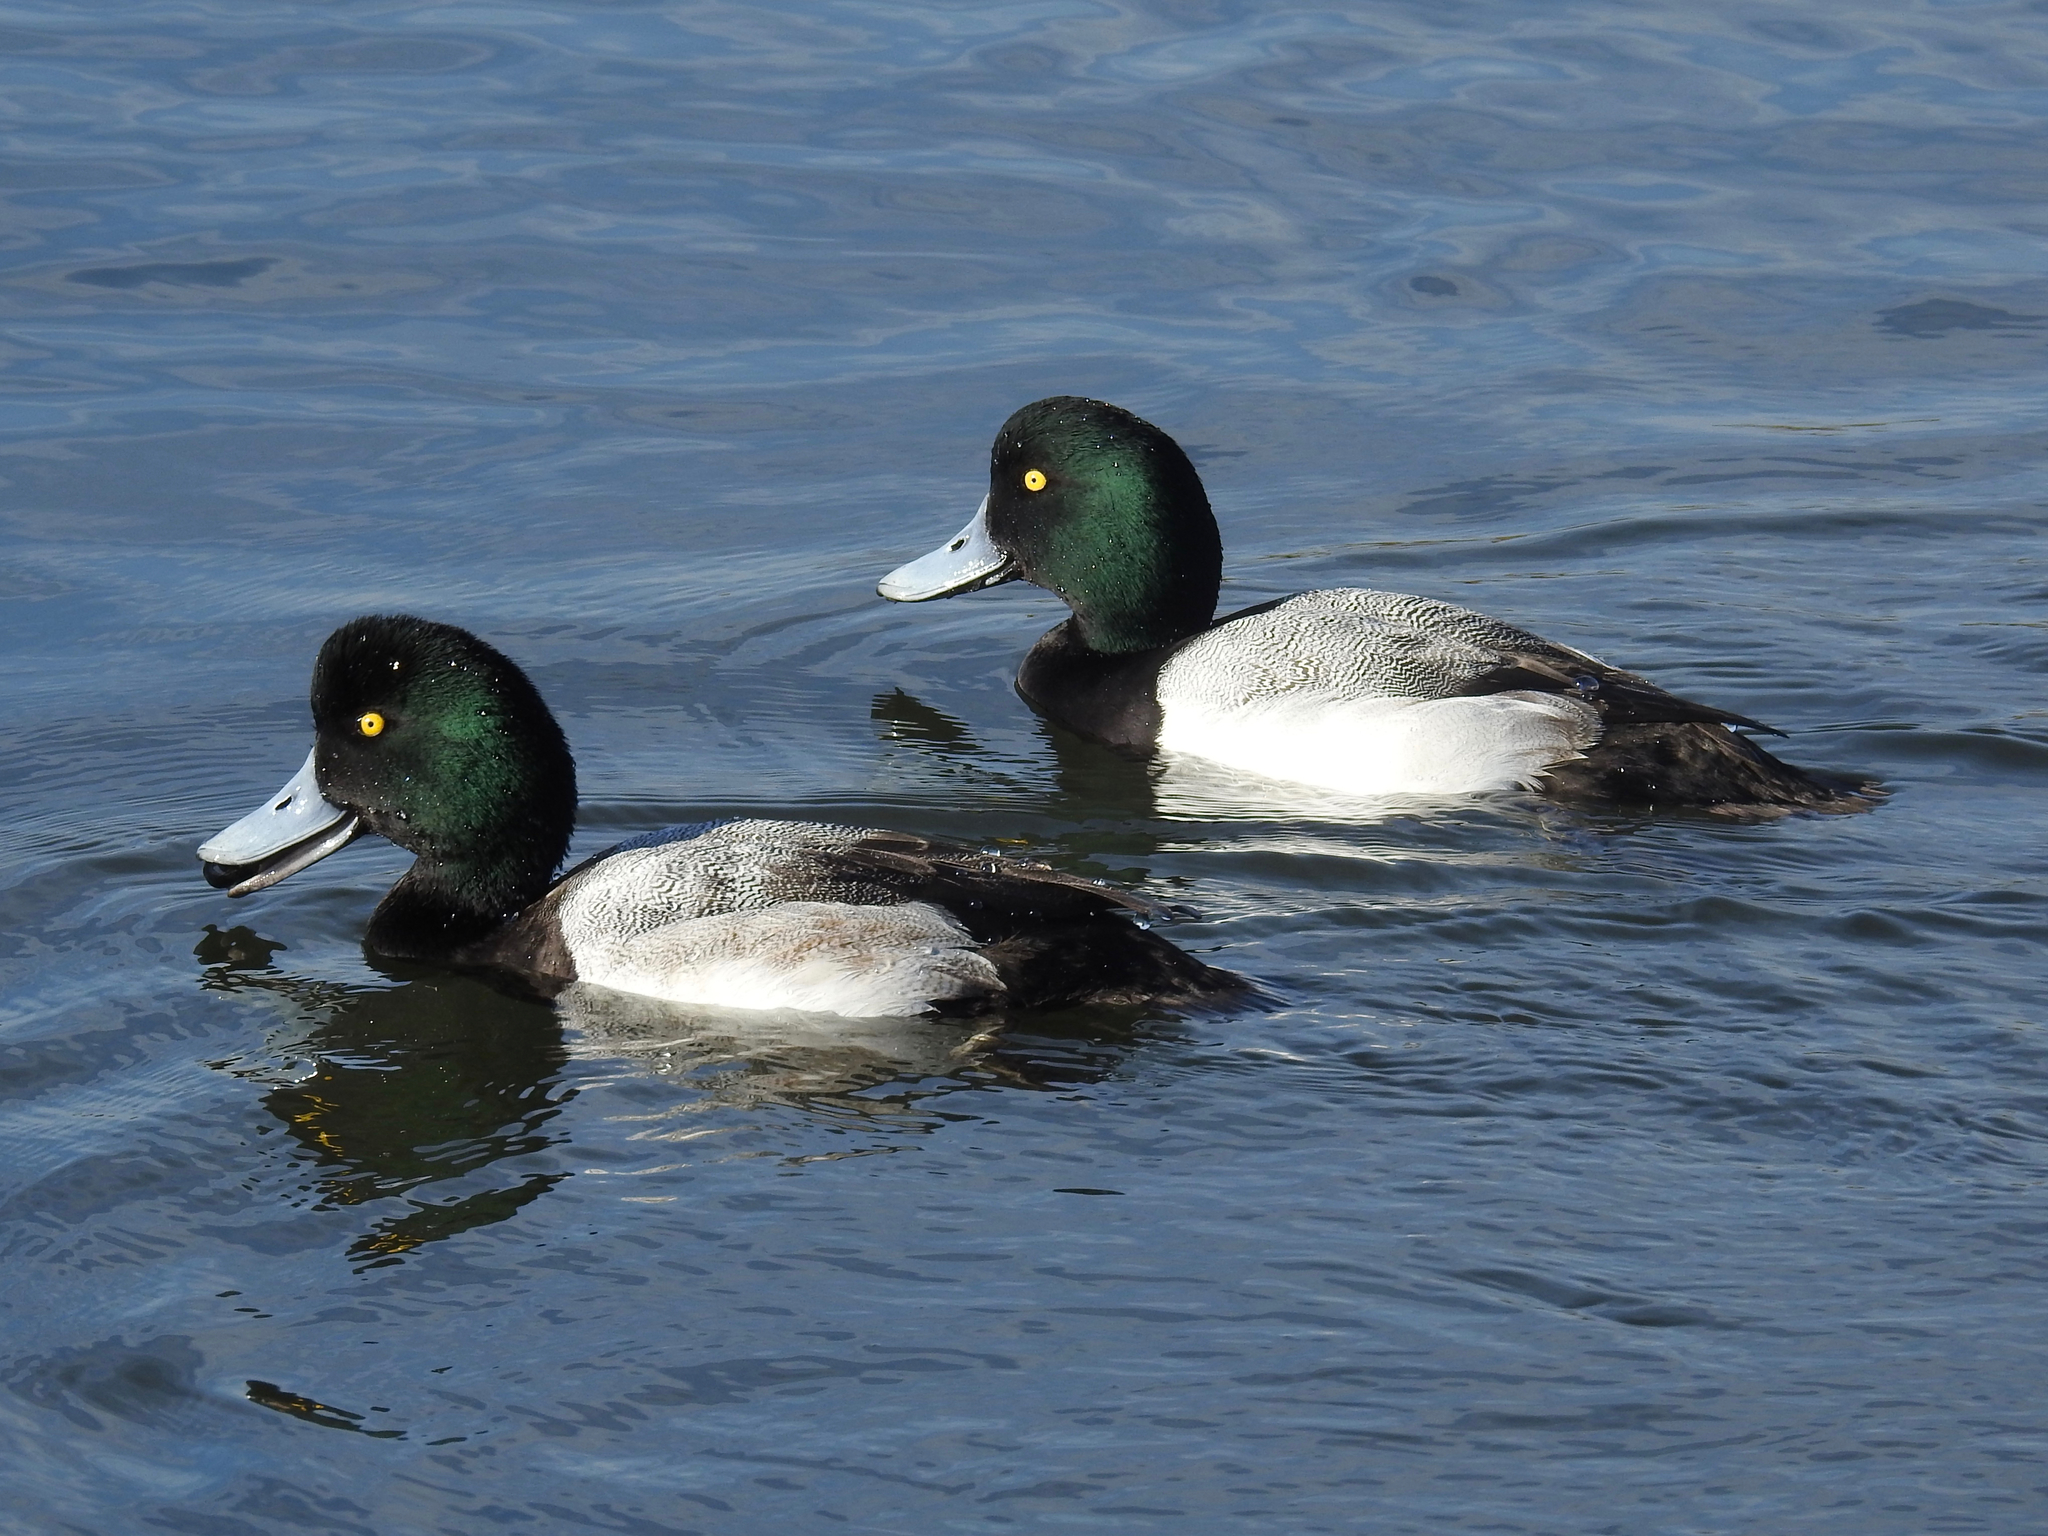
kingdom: Animalia
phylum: Chordata
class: Aves
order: Anseriformes
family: Anatidae
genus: Aythya
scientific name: Aythya marila
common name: Greater scaup
